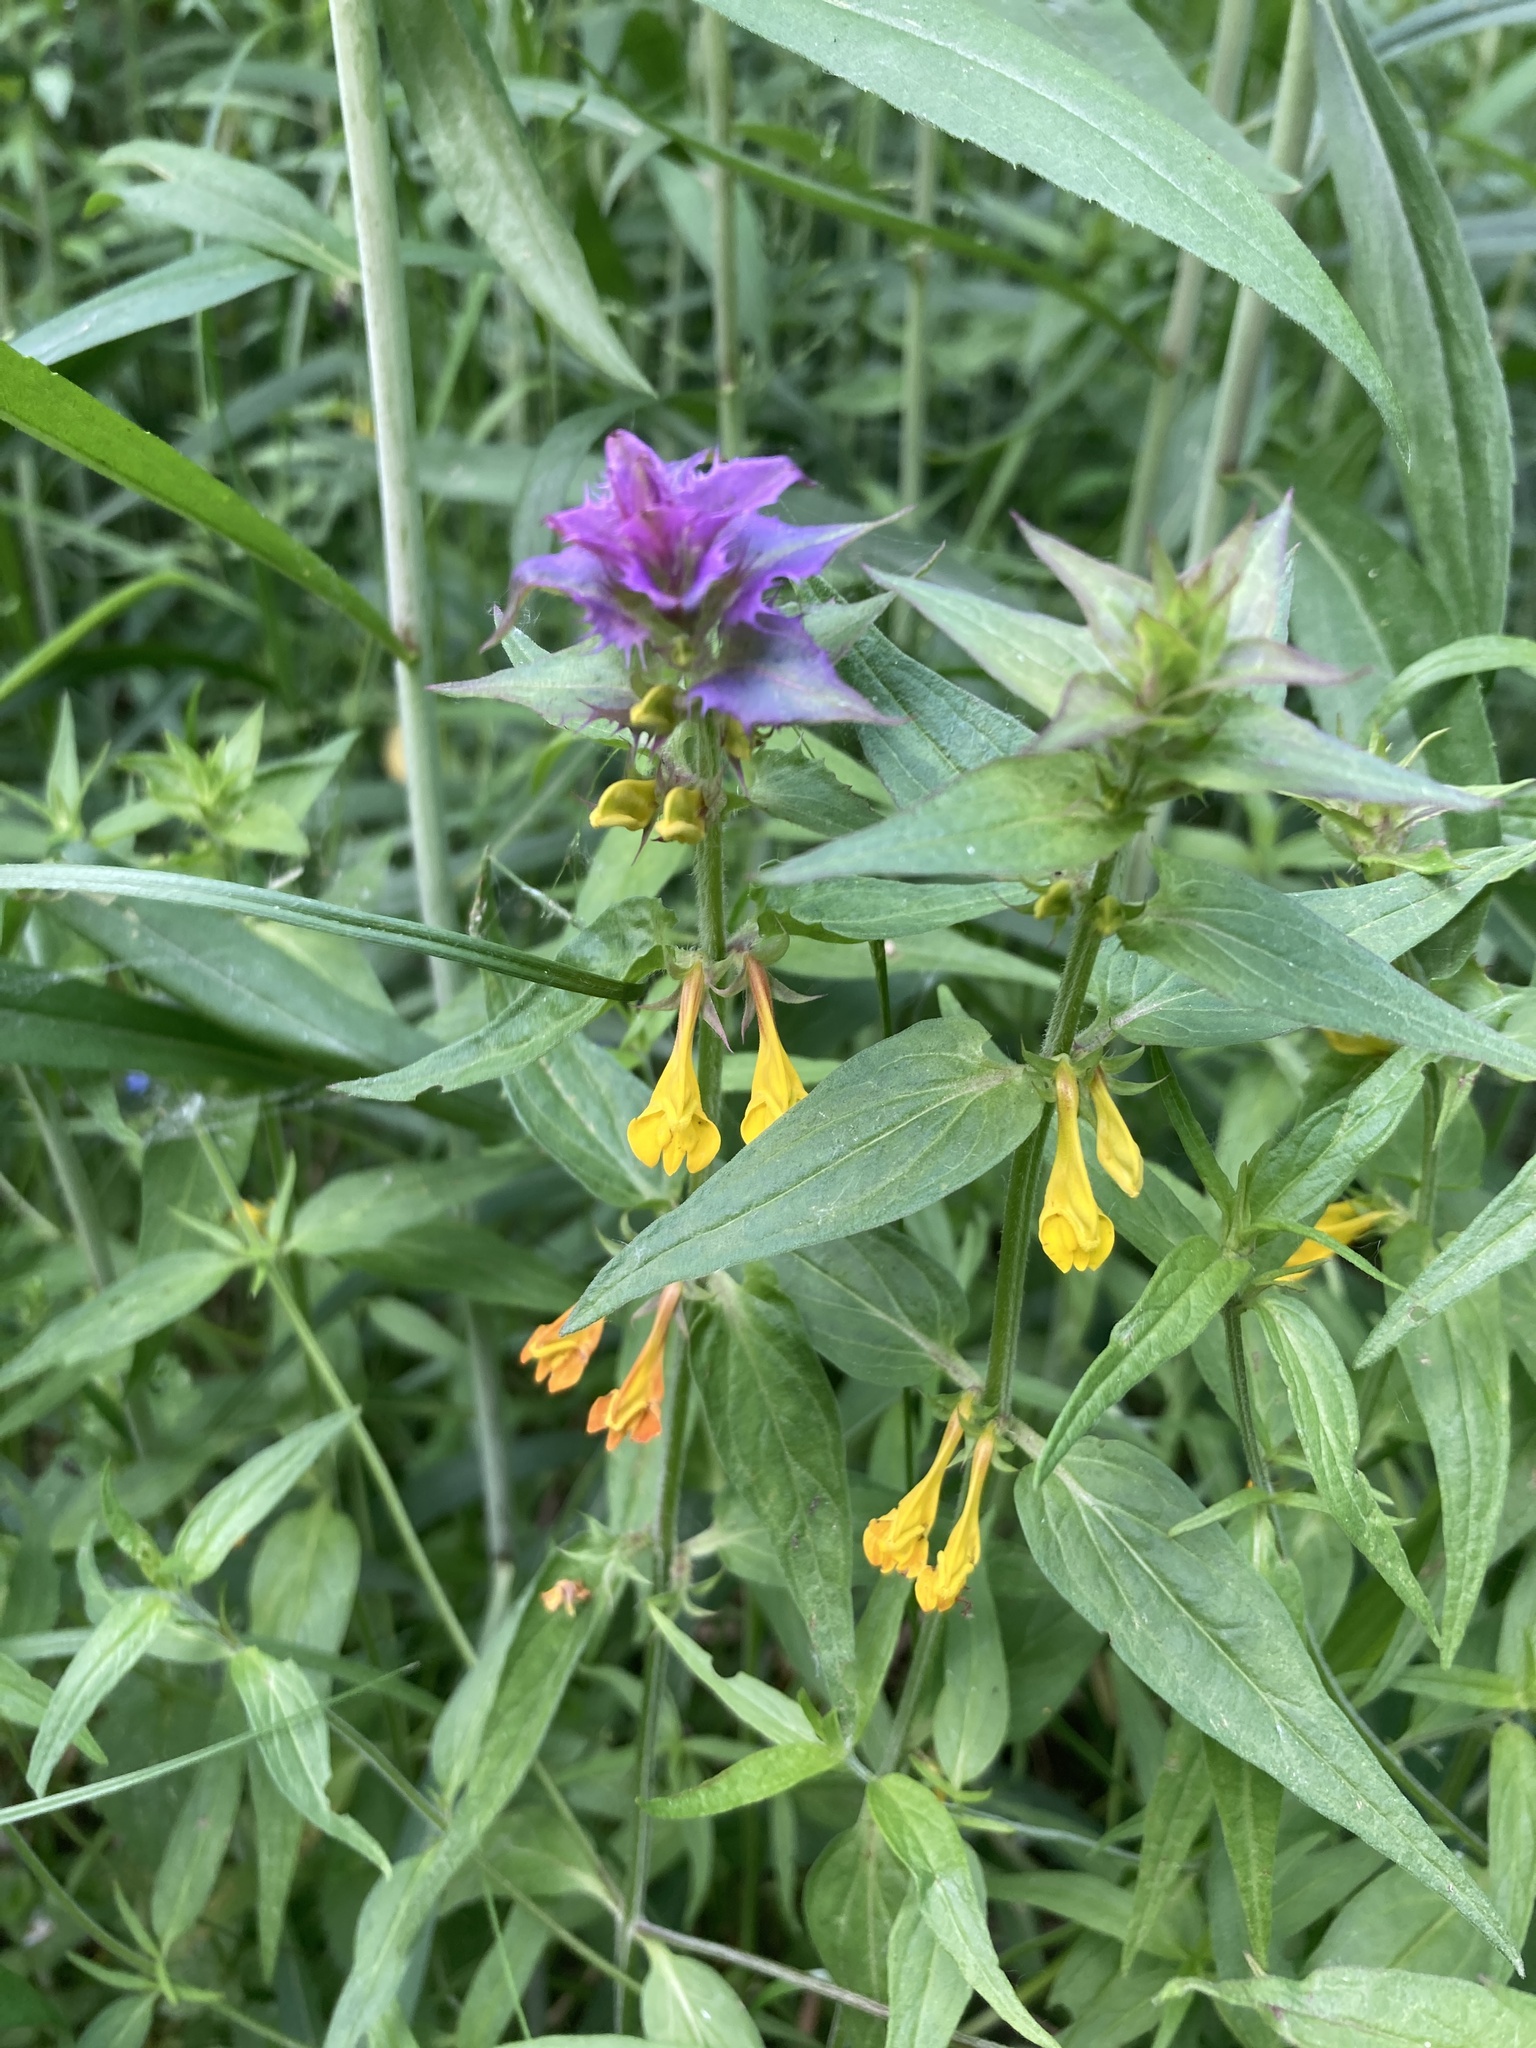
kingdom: Plantae
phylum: Tracheophyta
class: Magnoliopsida
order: Lamiales
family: Orobanchaceae
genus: Melampyrum
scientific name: Melampyrum nemorosum
